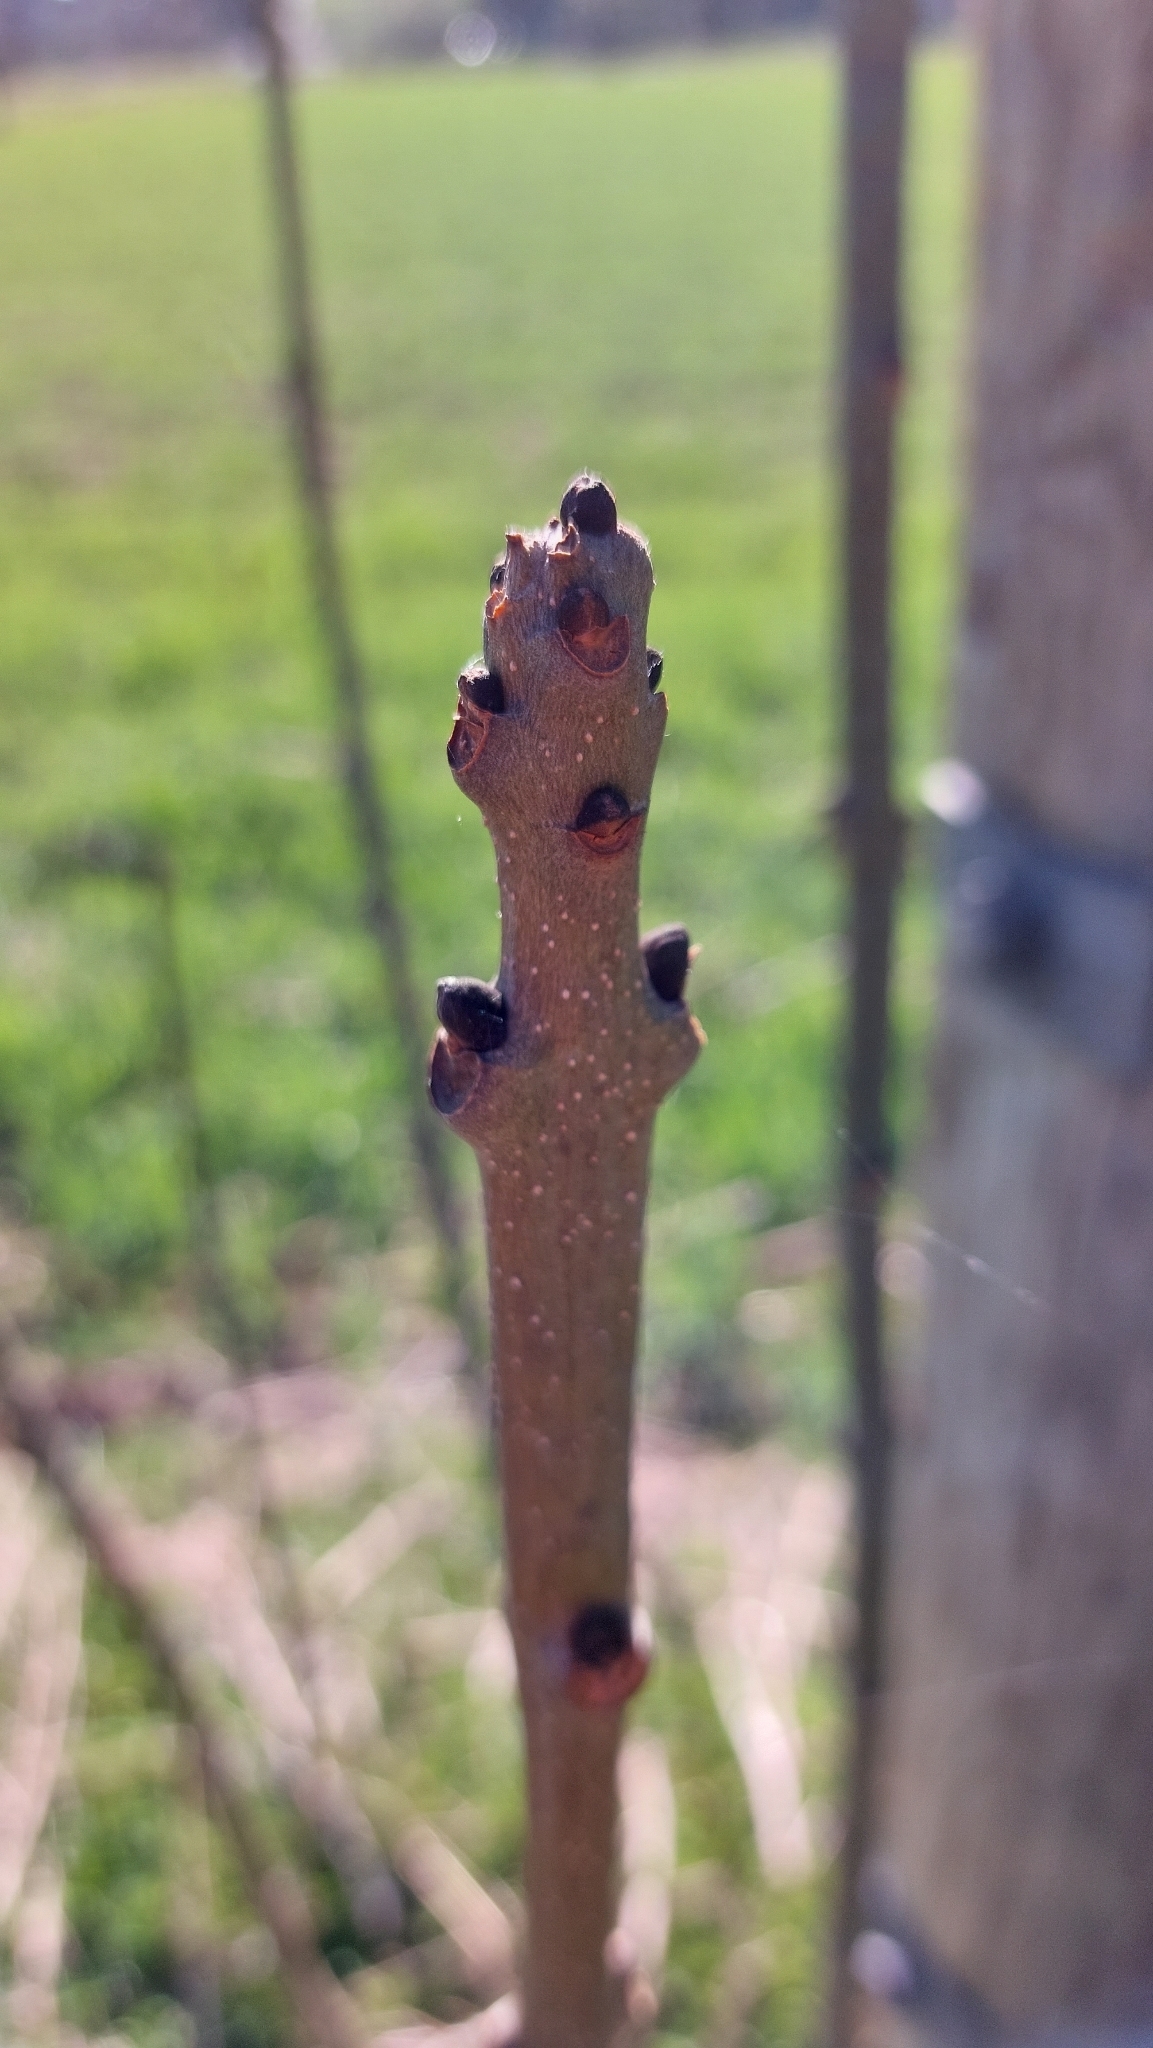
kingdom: Plantae
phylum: Tracheophyta
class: Magnoliopsida
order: Lamiales
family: Oleaceae
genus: Fraxinus
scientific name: Fraxinus excelsior
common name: European ash
